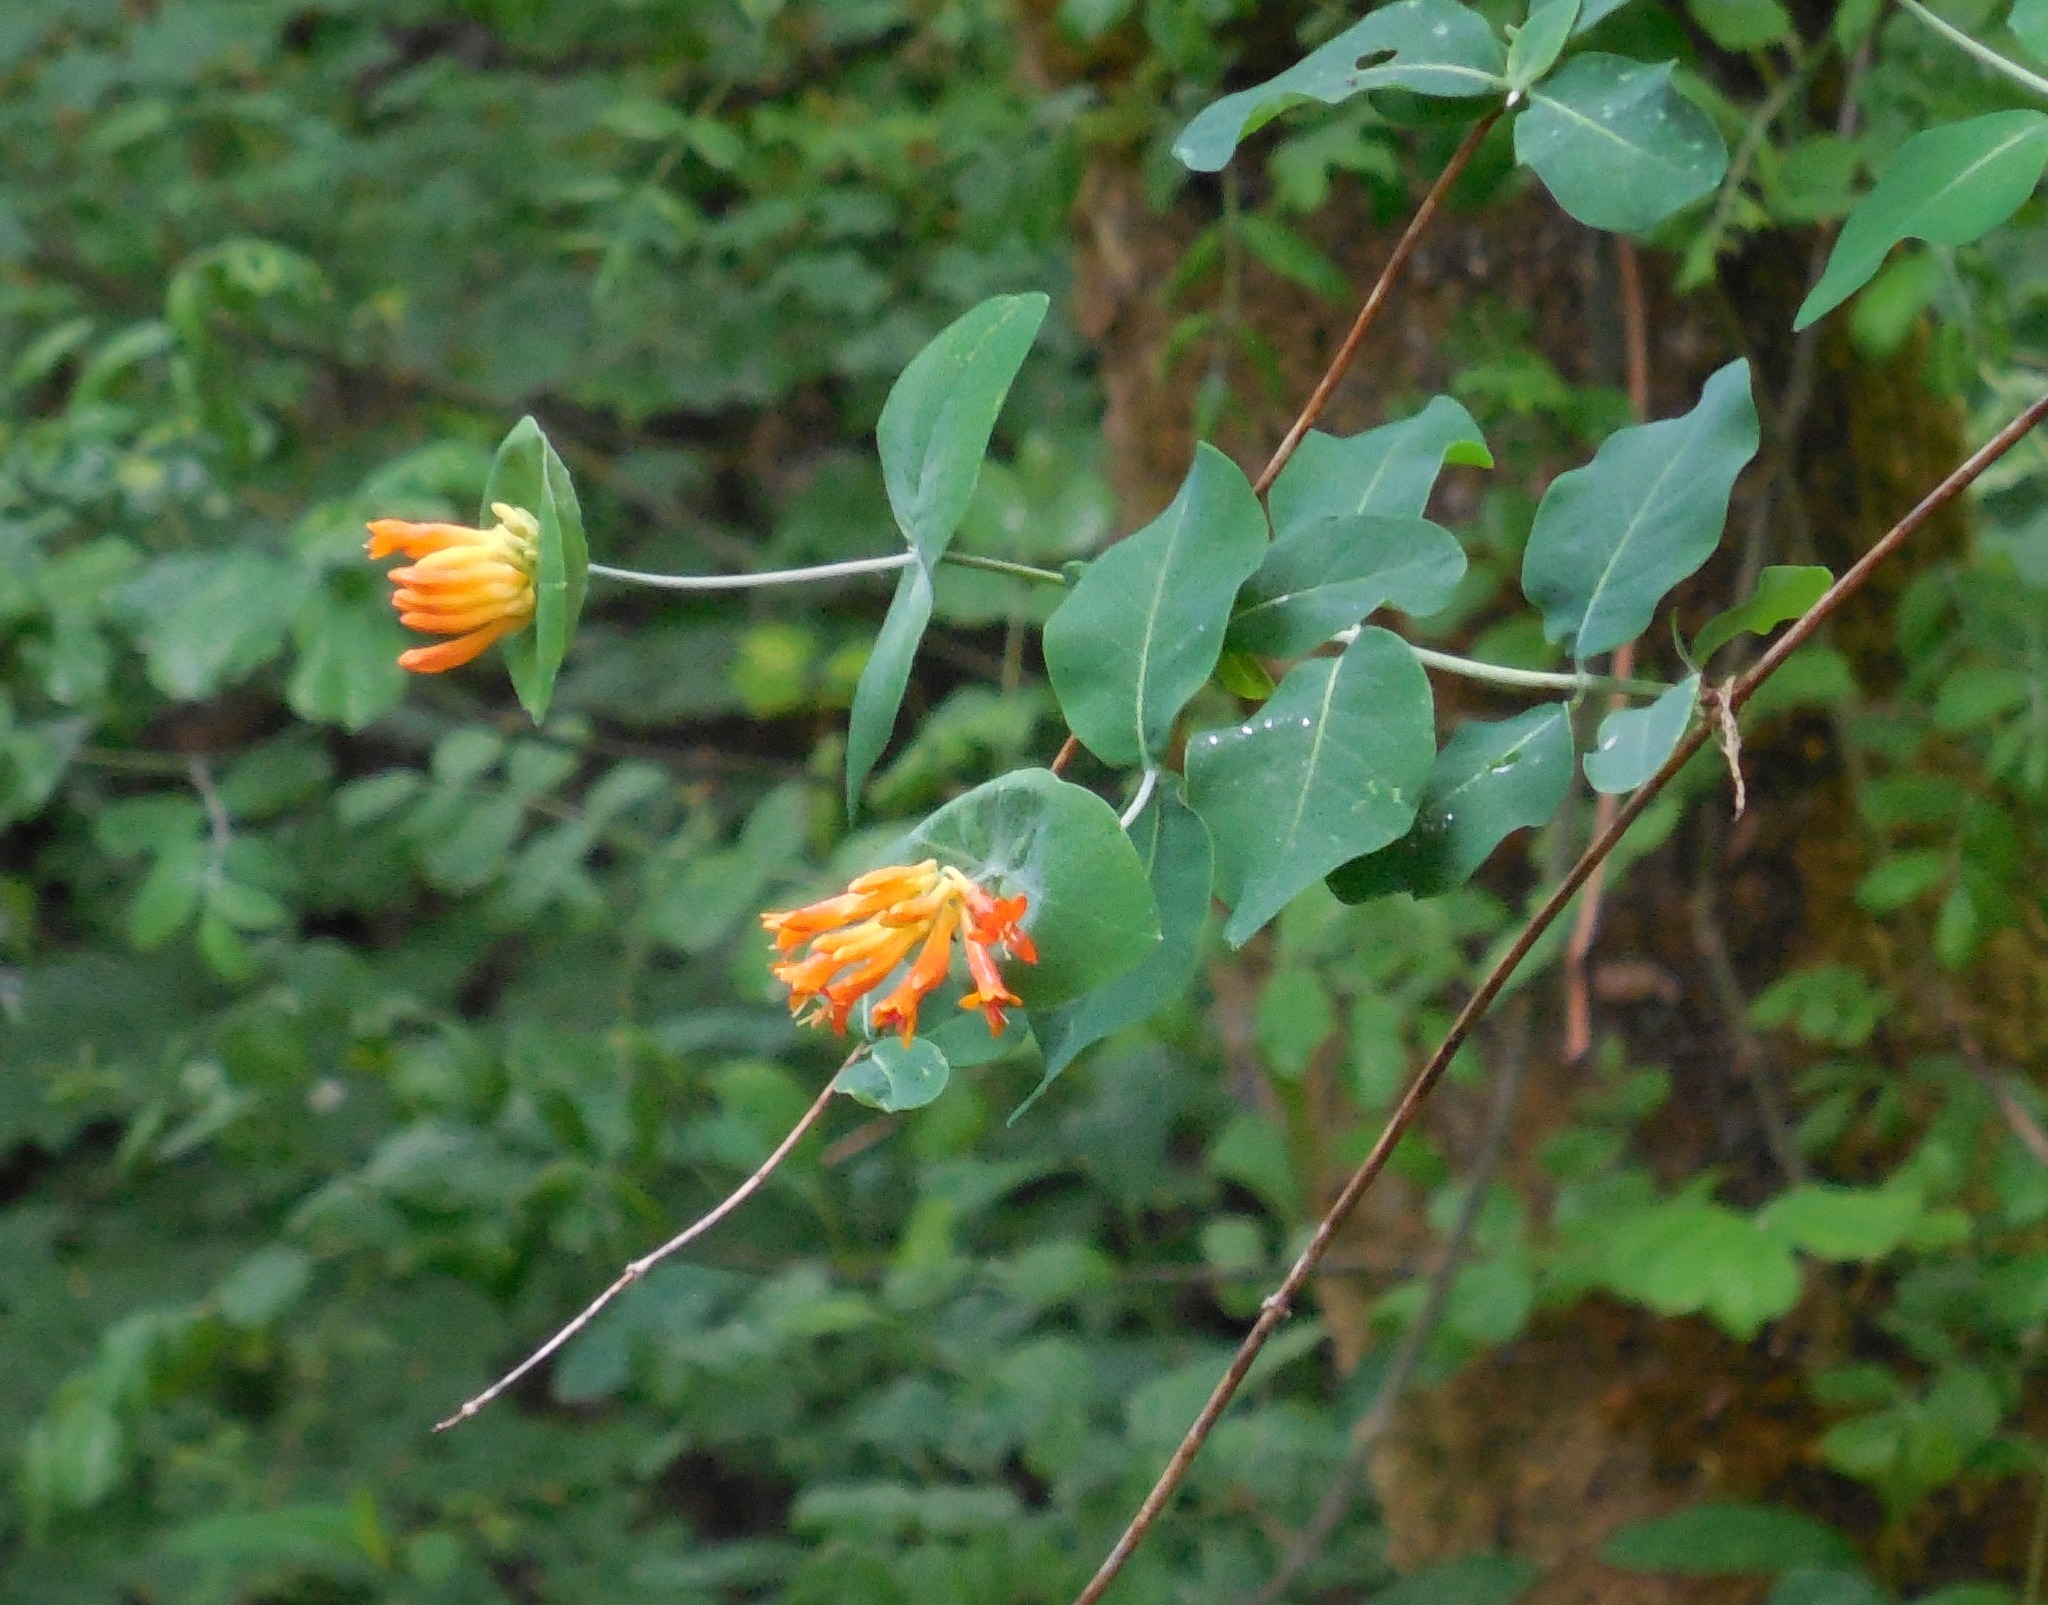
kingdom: Plantae
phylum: Tracheophyta
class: Magnoliopsida
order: Dipsacales
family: Caprifoliaceae
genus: Lonicera
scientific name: Lonicera ciliosa
